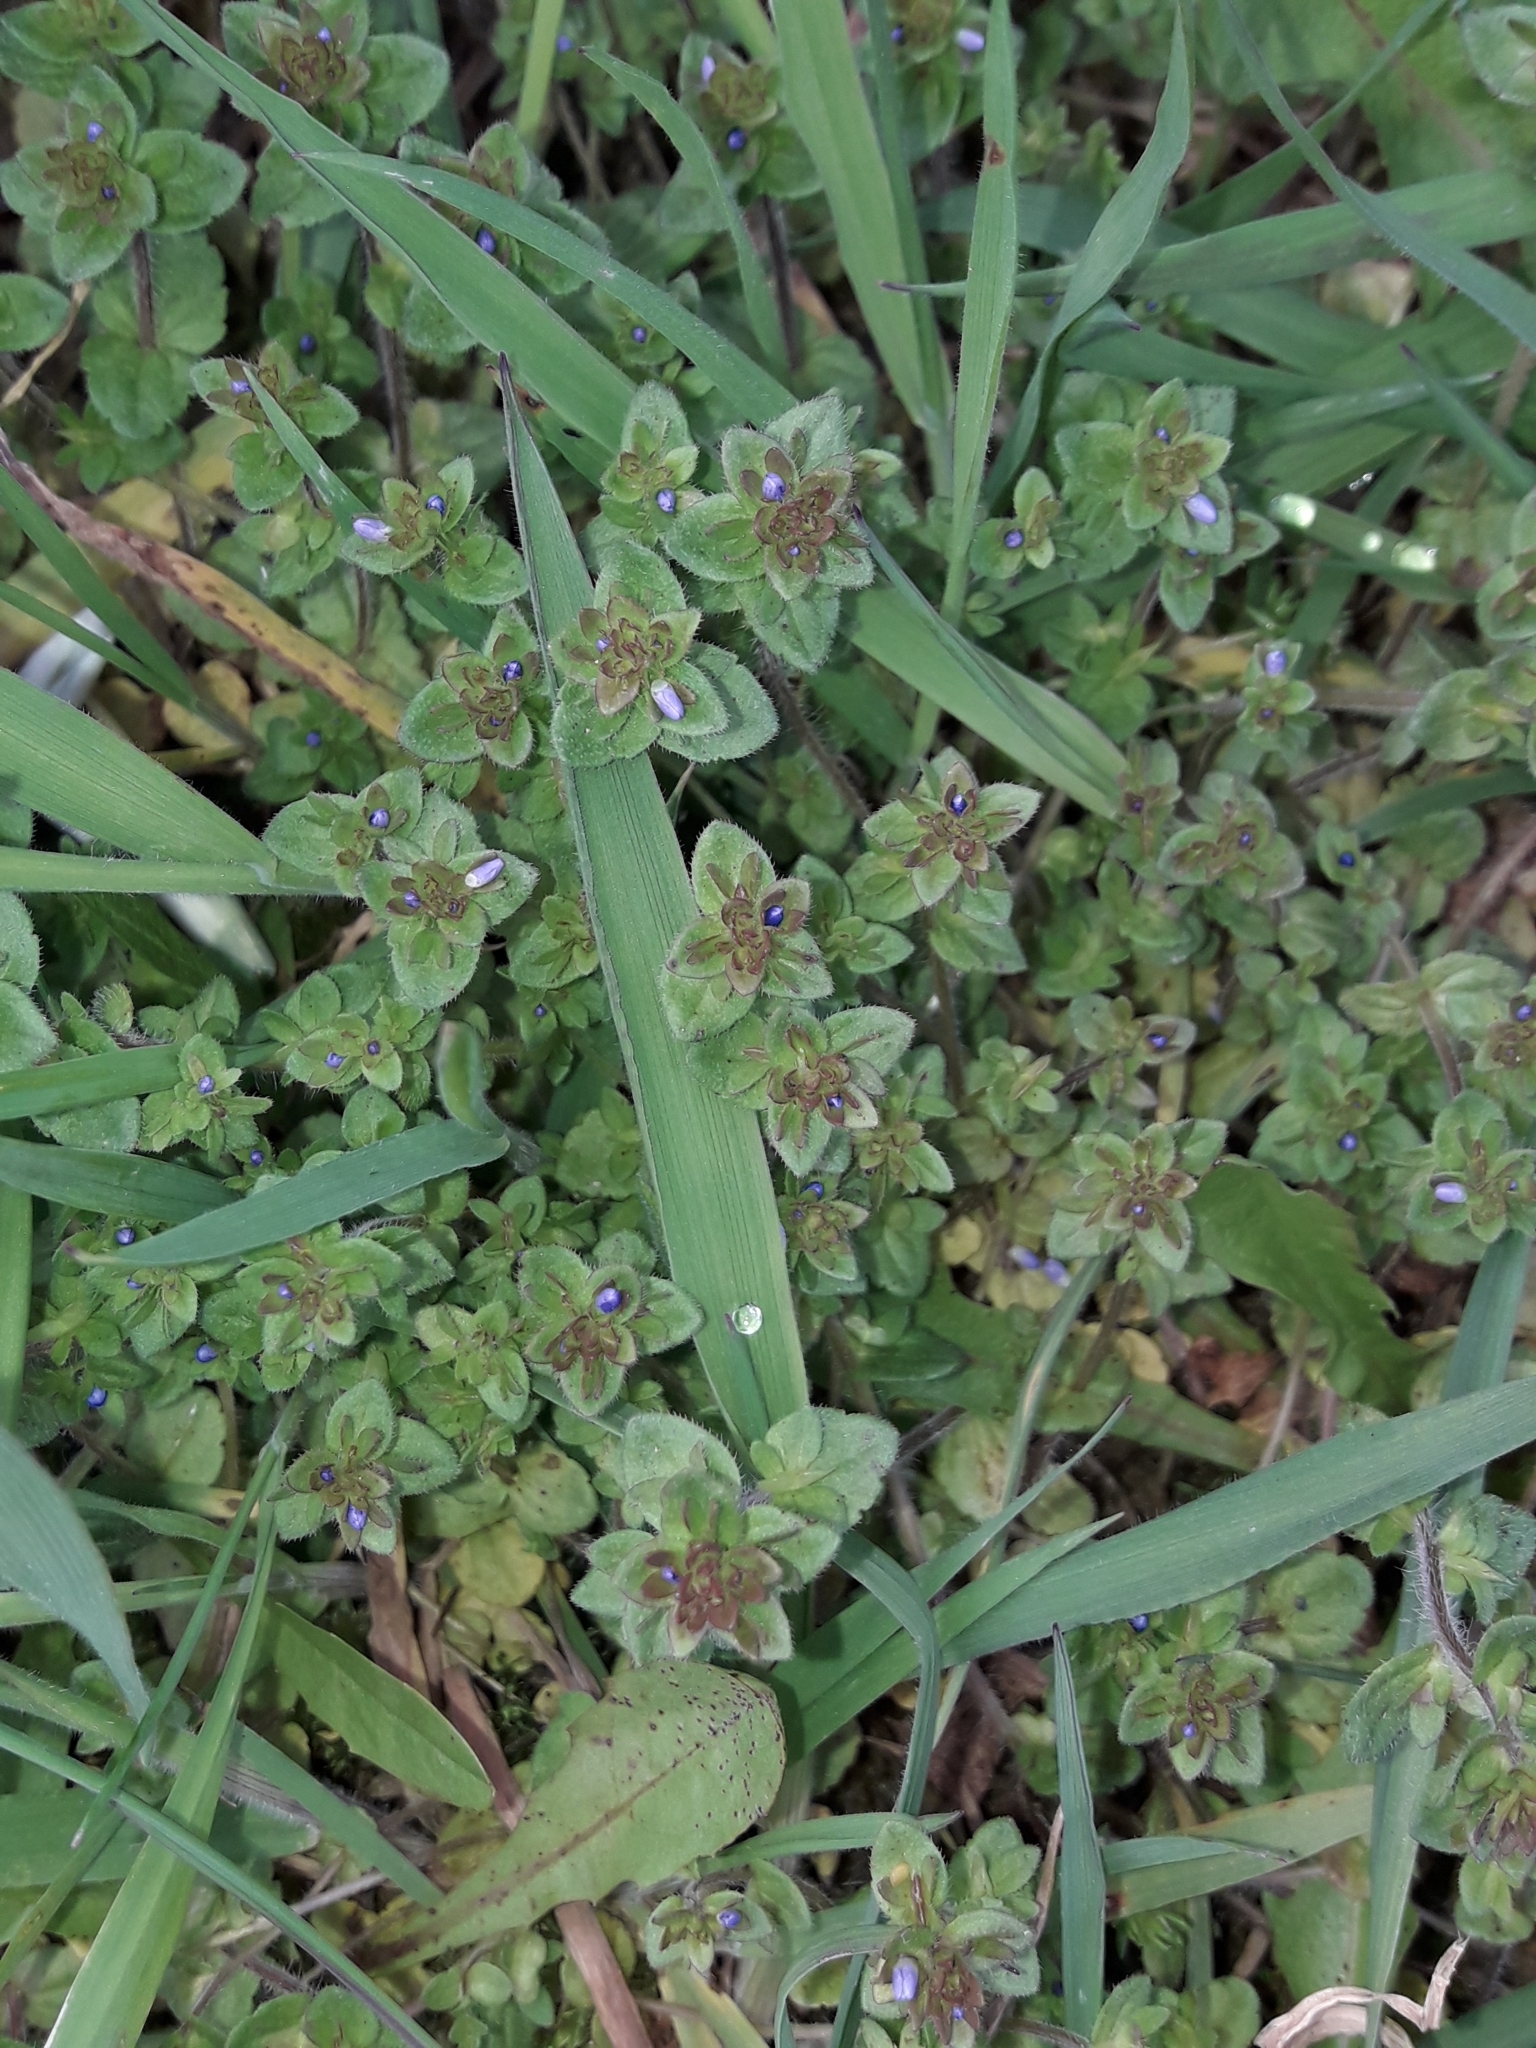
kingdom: Plantae
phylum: Tracheophyta
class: Magnoliopsida
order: Lamiales
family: Plantaginaceae
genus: Veronica
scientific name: Veronica arvensis
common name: Corn speedwell
